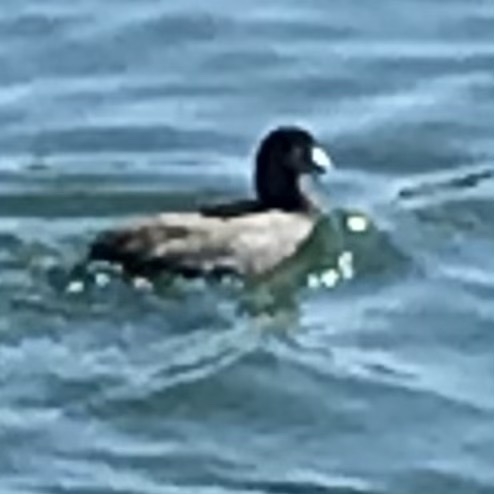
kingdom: Animalia
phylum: Chordata
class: Aves
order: Gruiformes
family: Rallidae
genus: Fulica
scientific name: Fulica americana
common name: American coot
